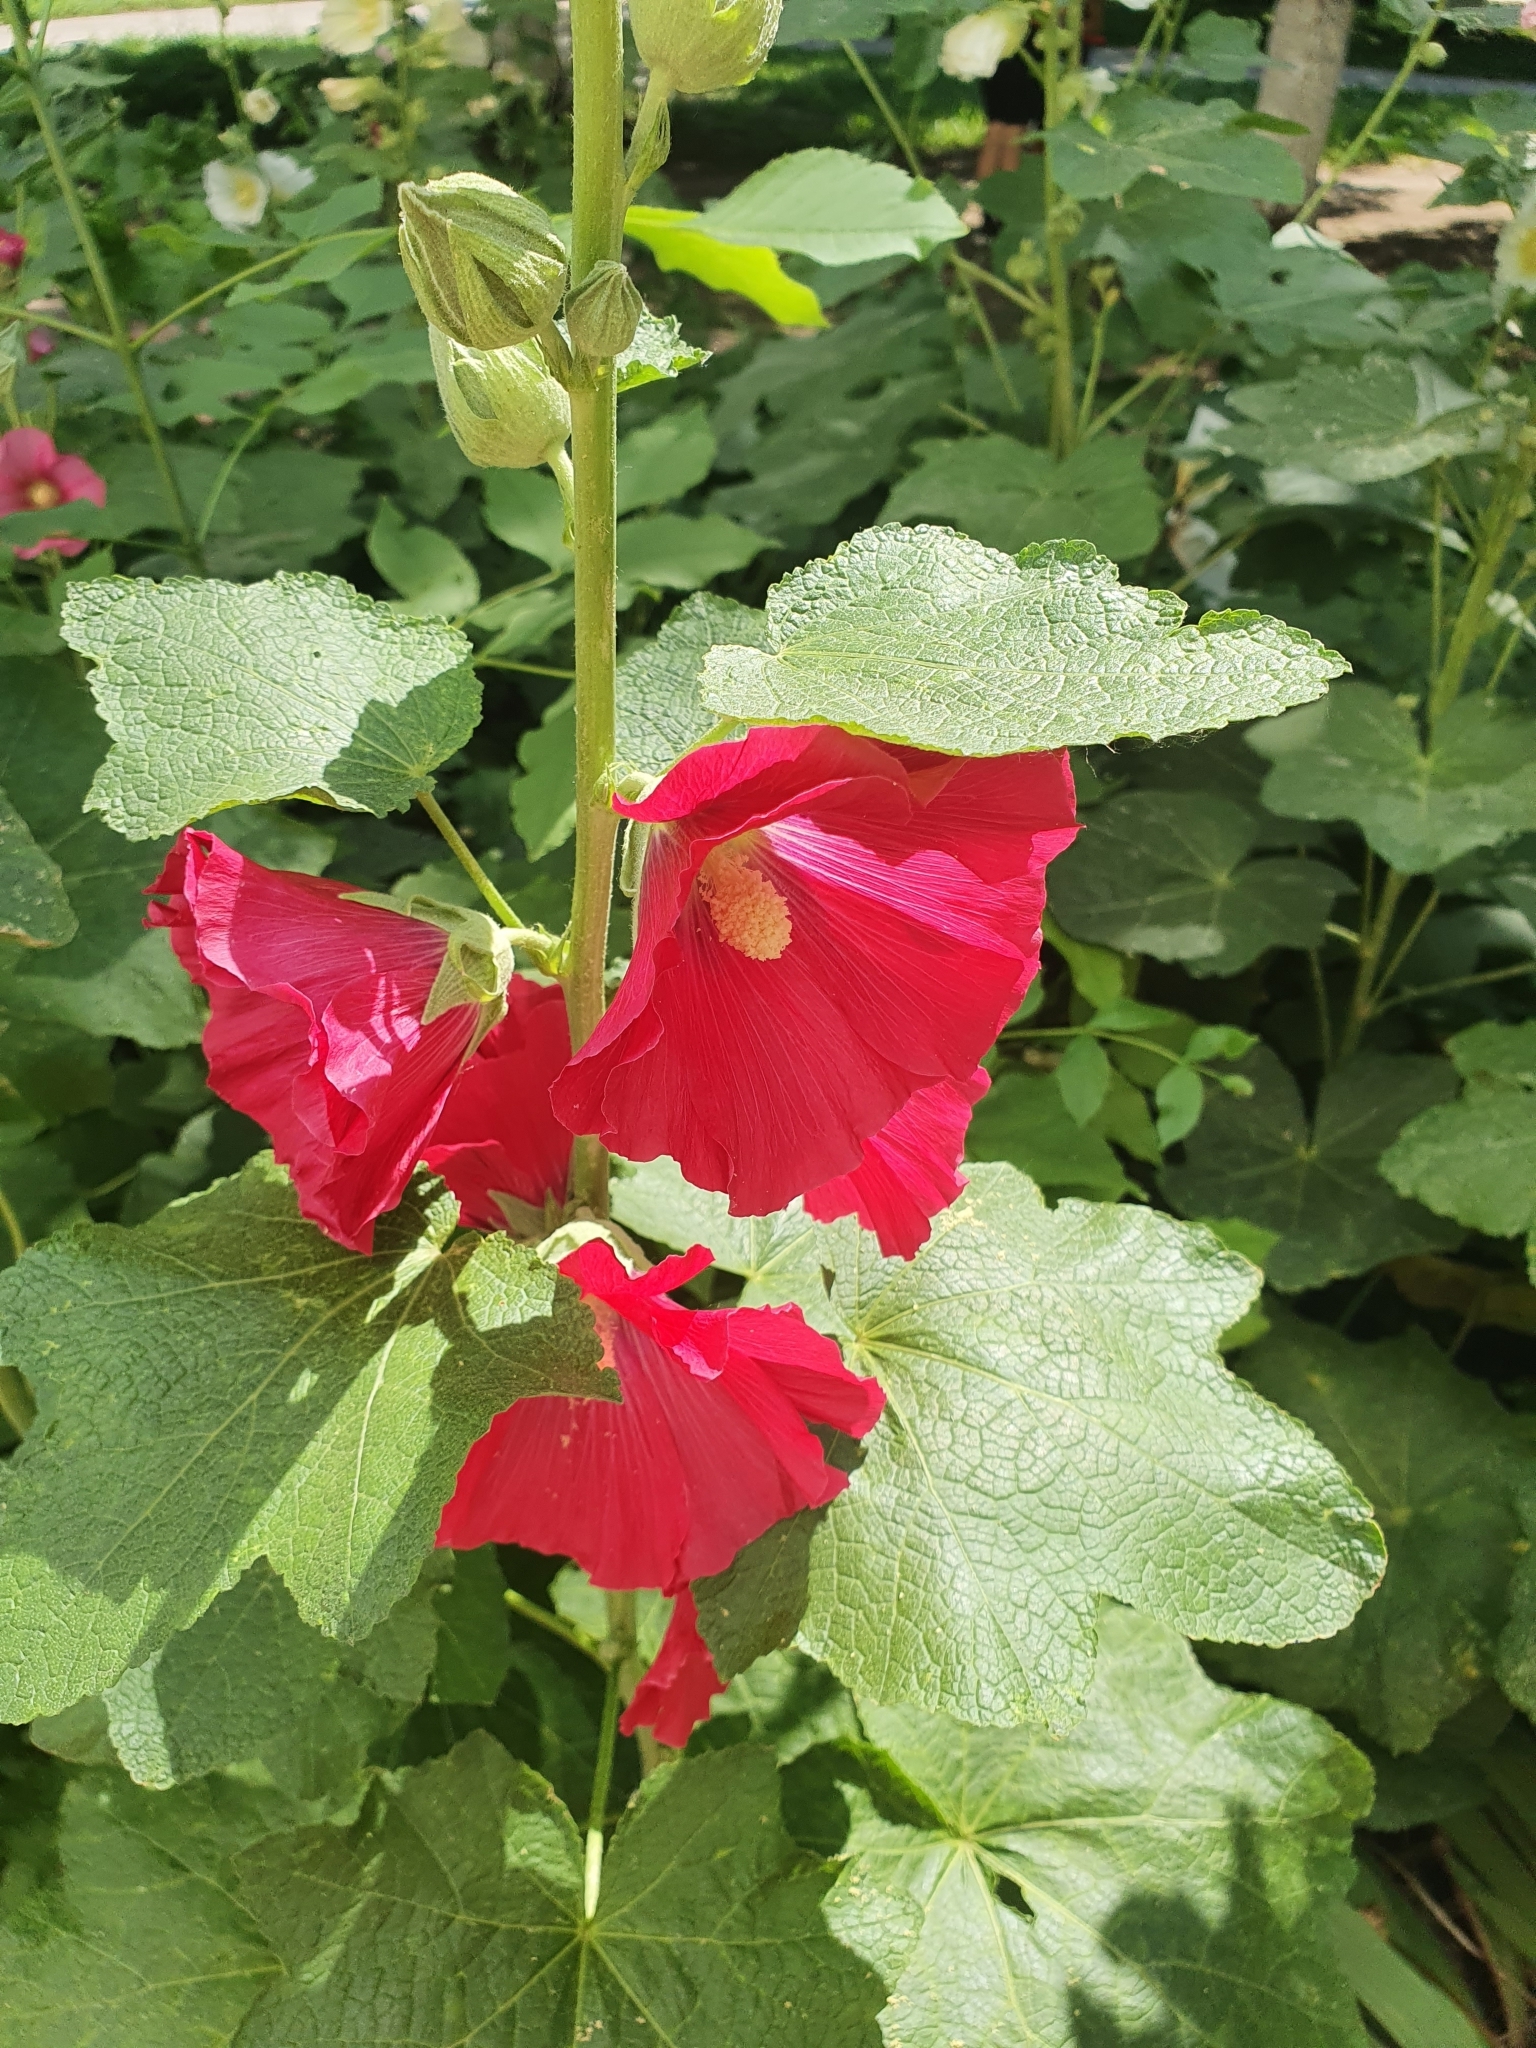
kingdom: Plantae
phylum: Tracheophyta
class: Magnoliopsida
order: Malvales
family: Malvaceae
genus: Alcea
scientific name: Alcea rosea
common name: Hollyhock
